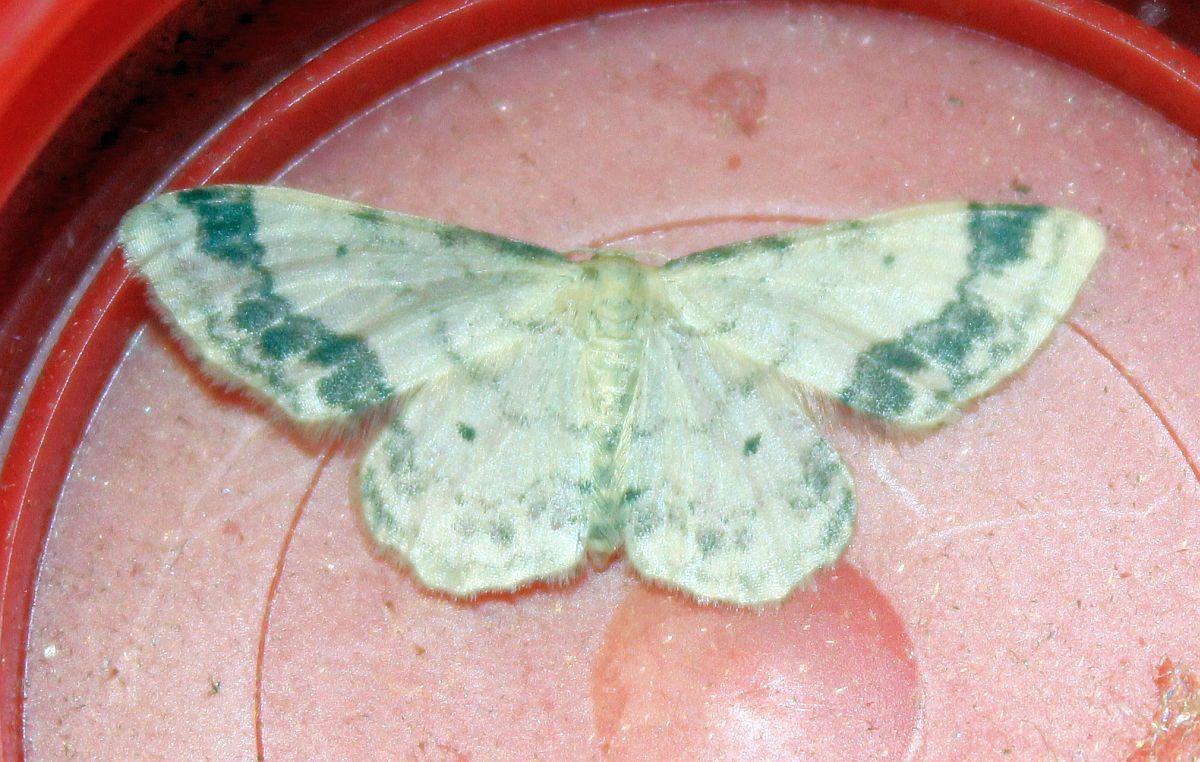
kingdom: Animalia
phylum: Arthropoda
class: Insecta
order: Lepidoptera
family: Geometridae
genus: Idaea
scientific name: Idaea trigeminata
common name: Treble brown spot
